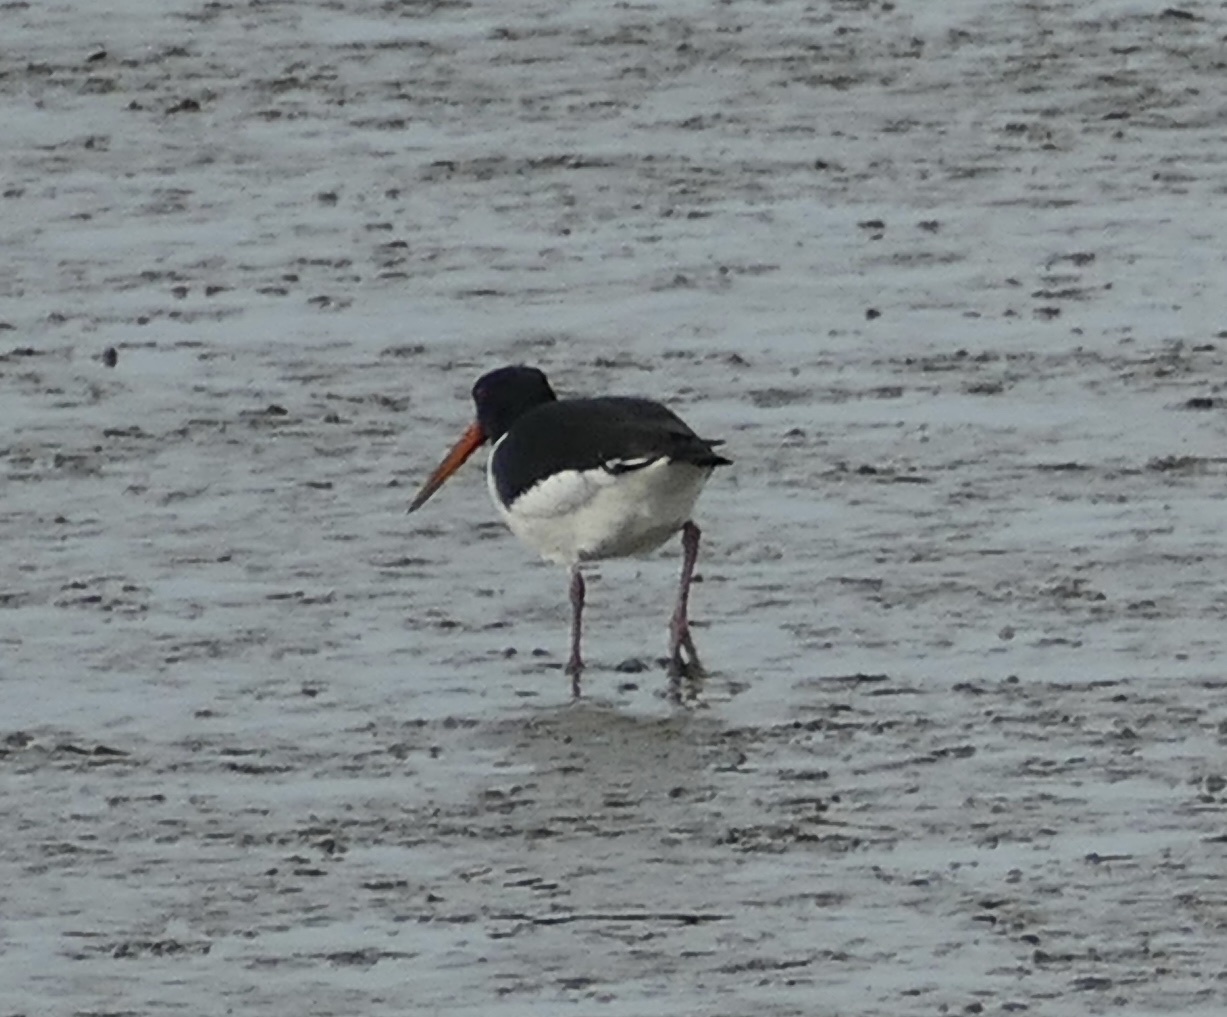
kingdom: Animalia
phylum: Chordata
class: Aves
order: Charadriiformes
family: Haematopodidae
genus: Haematopus
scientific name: Haematopus ostralegus
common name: Eurasian oystercatcher
